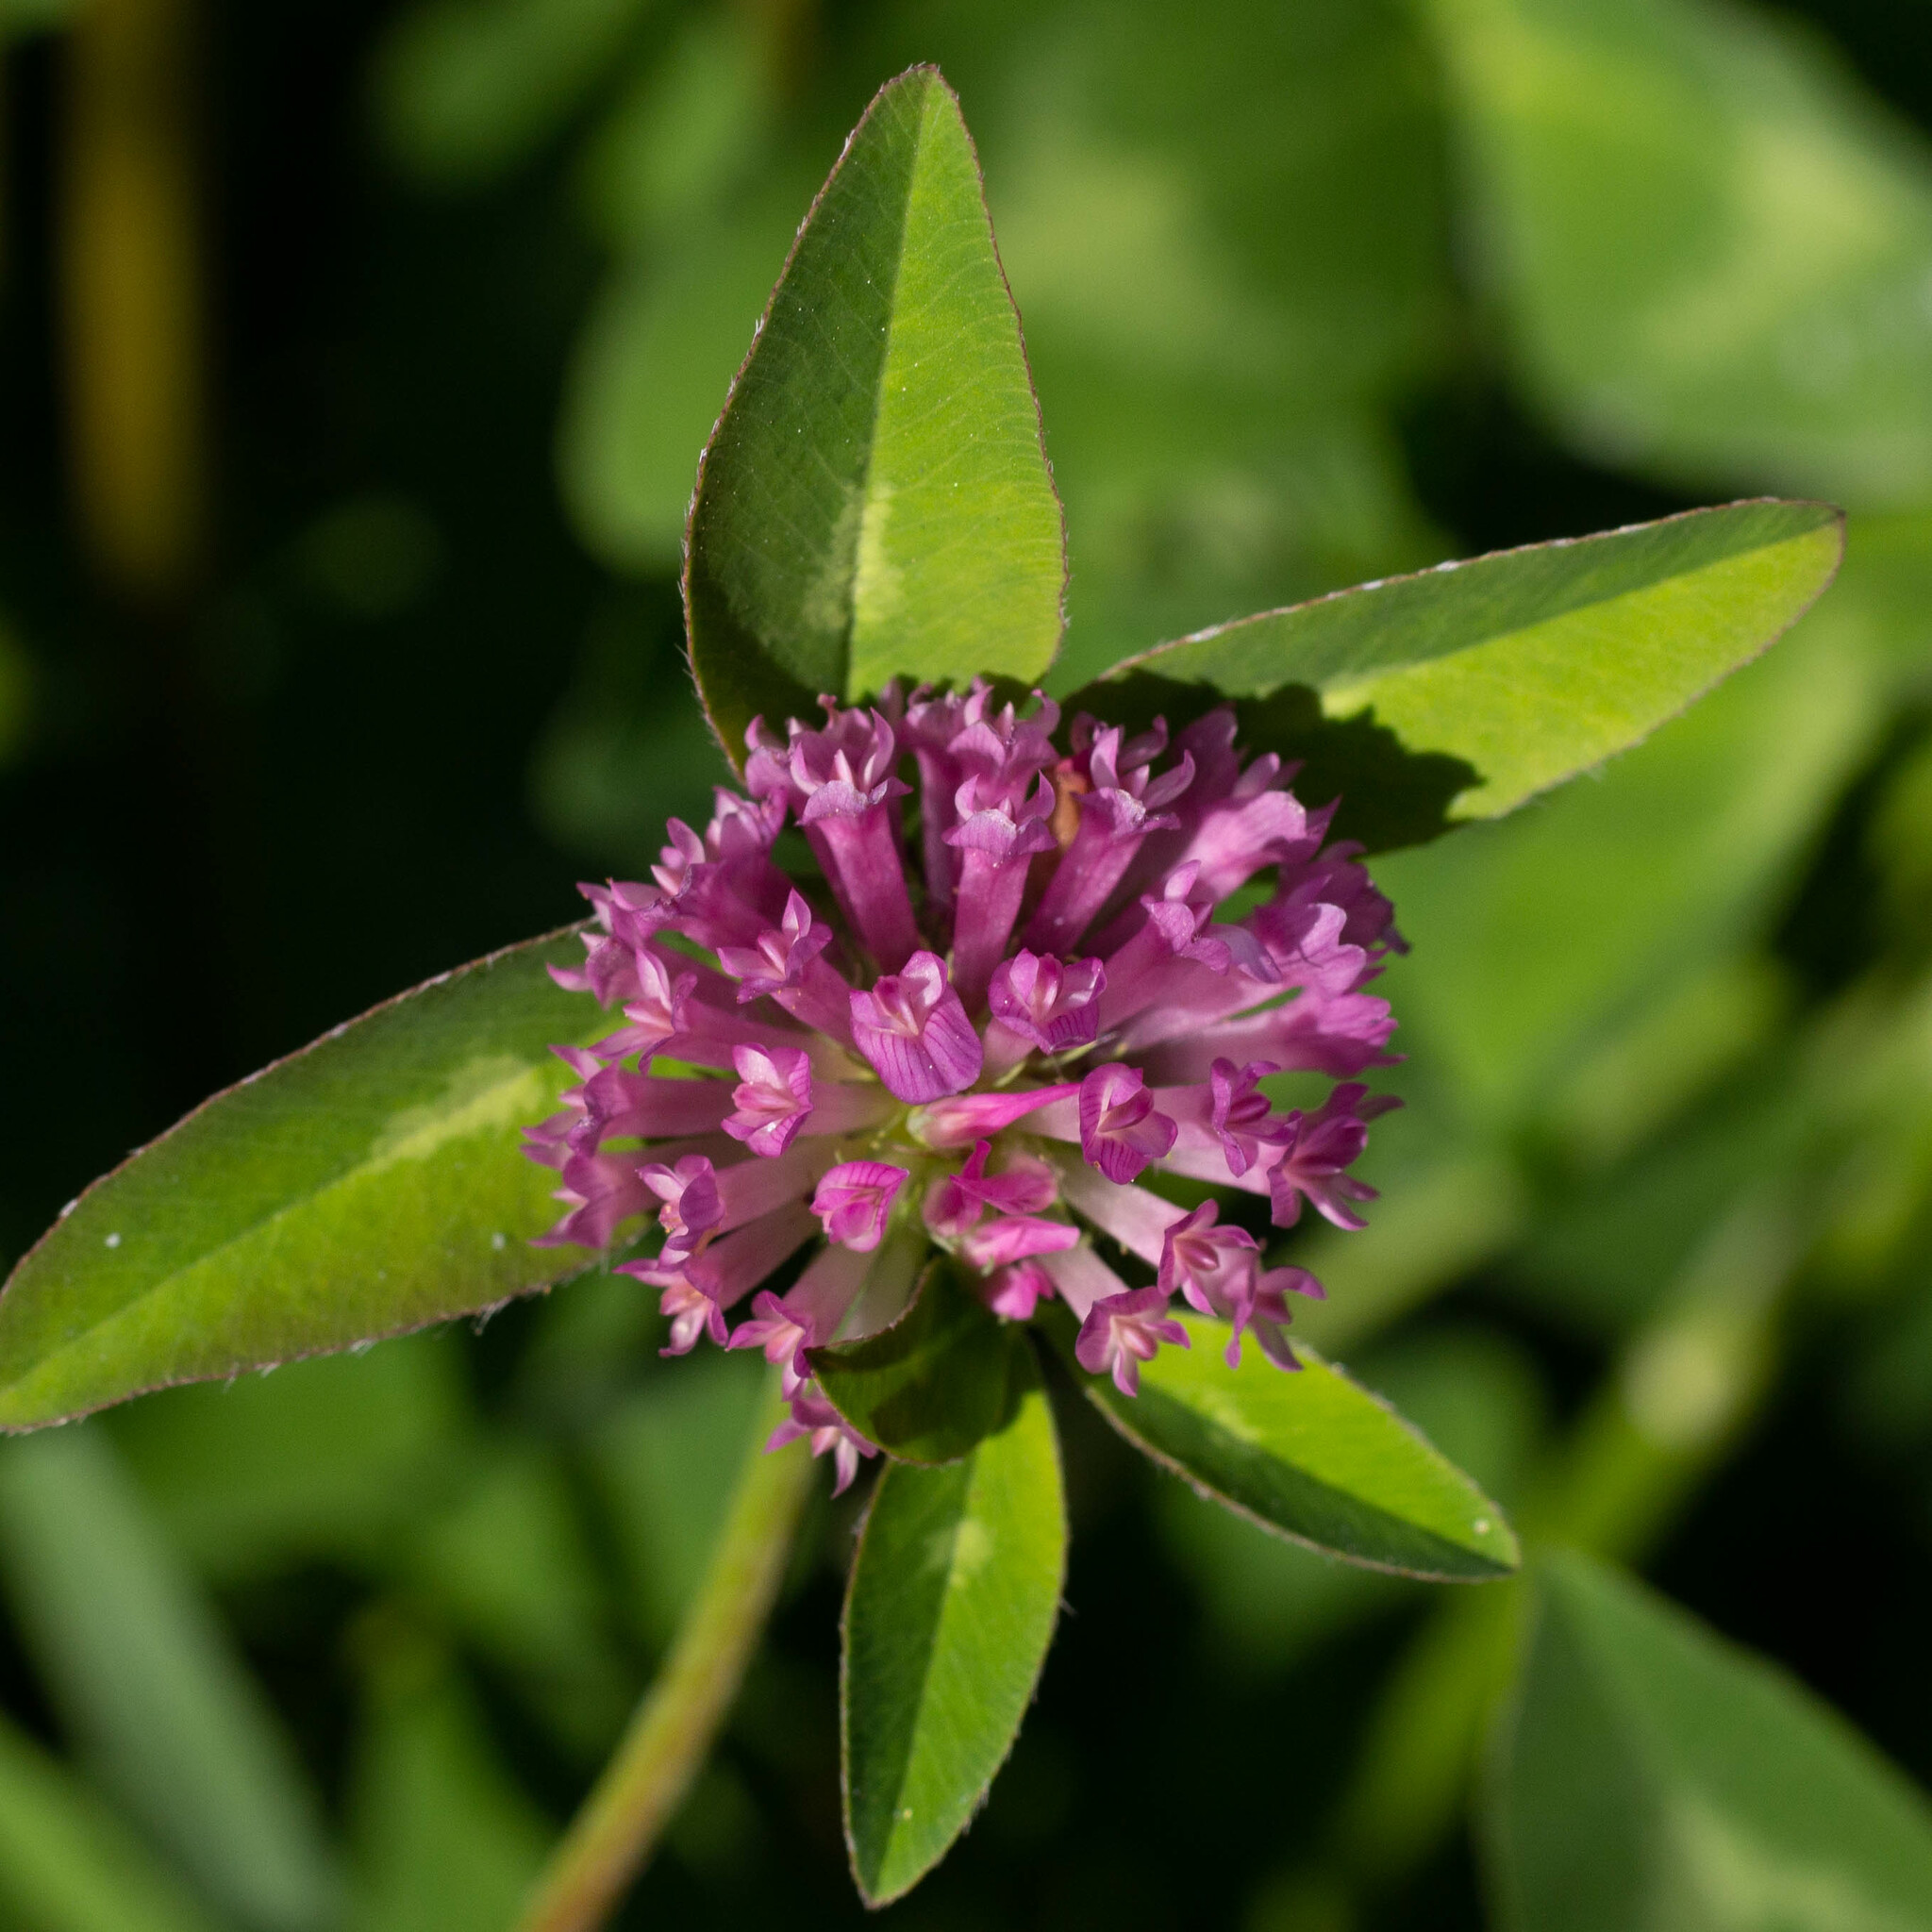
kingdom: Plantae
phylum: Tracheophyta
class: Magnoliopsida
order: Fabales
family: Fabaceae
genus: Trifolium
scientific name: Trifolium pratense
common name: Red clover
